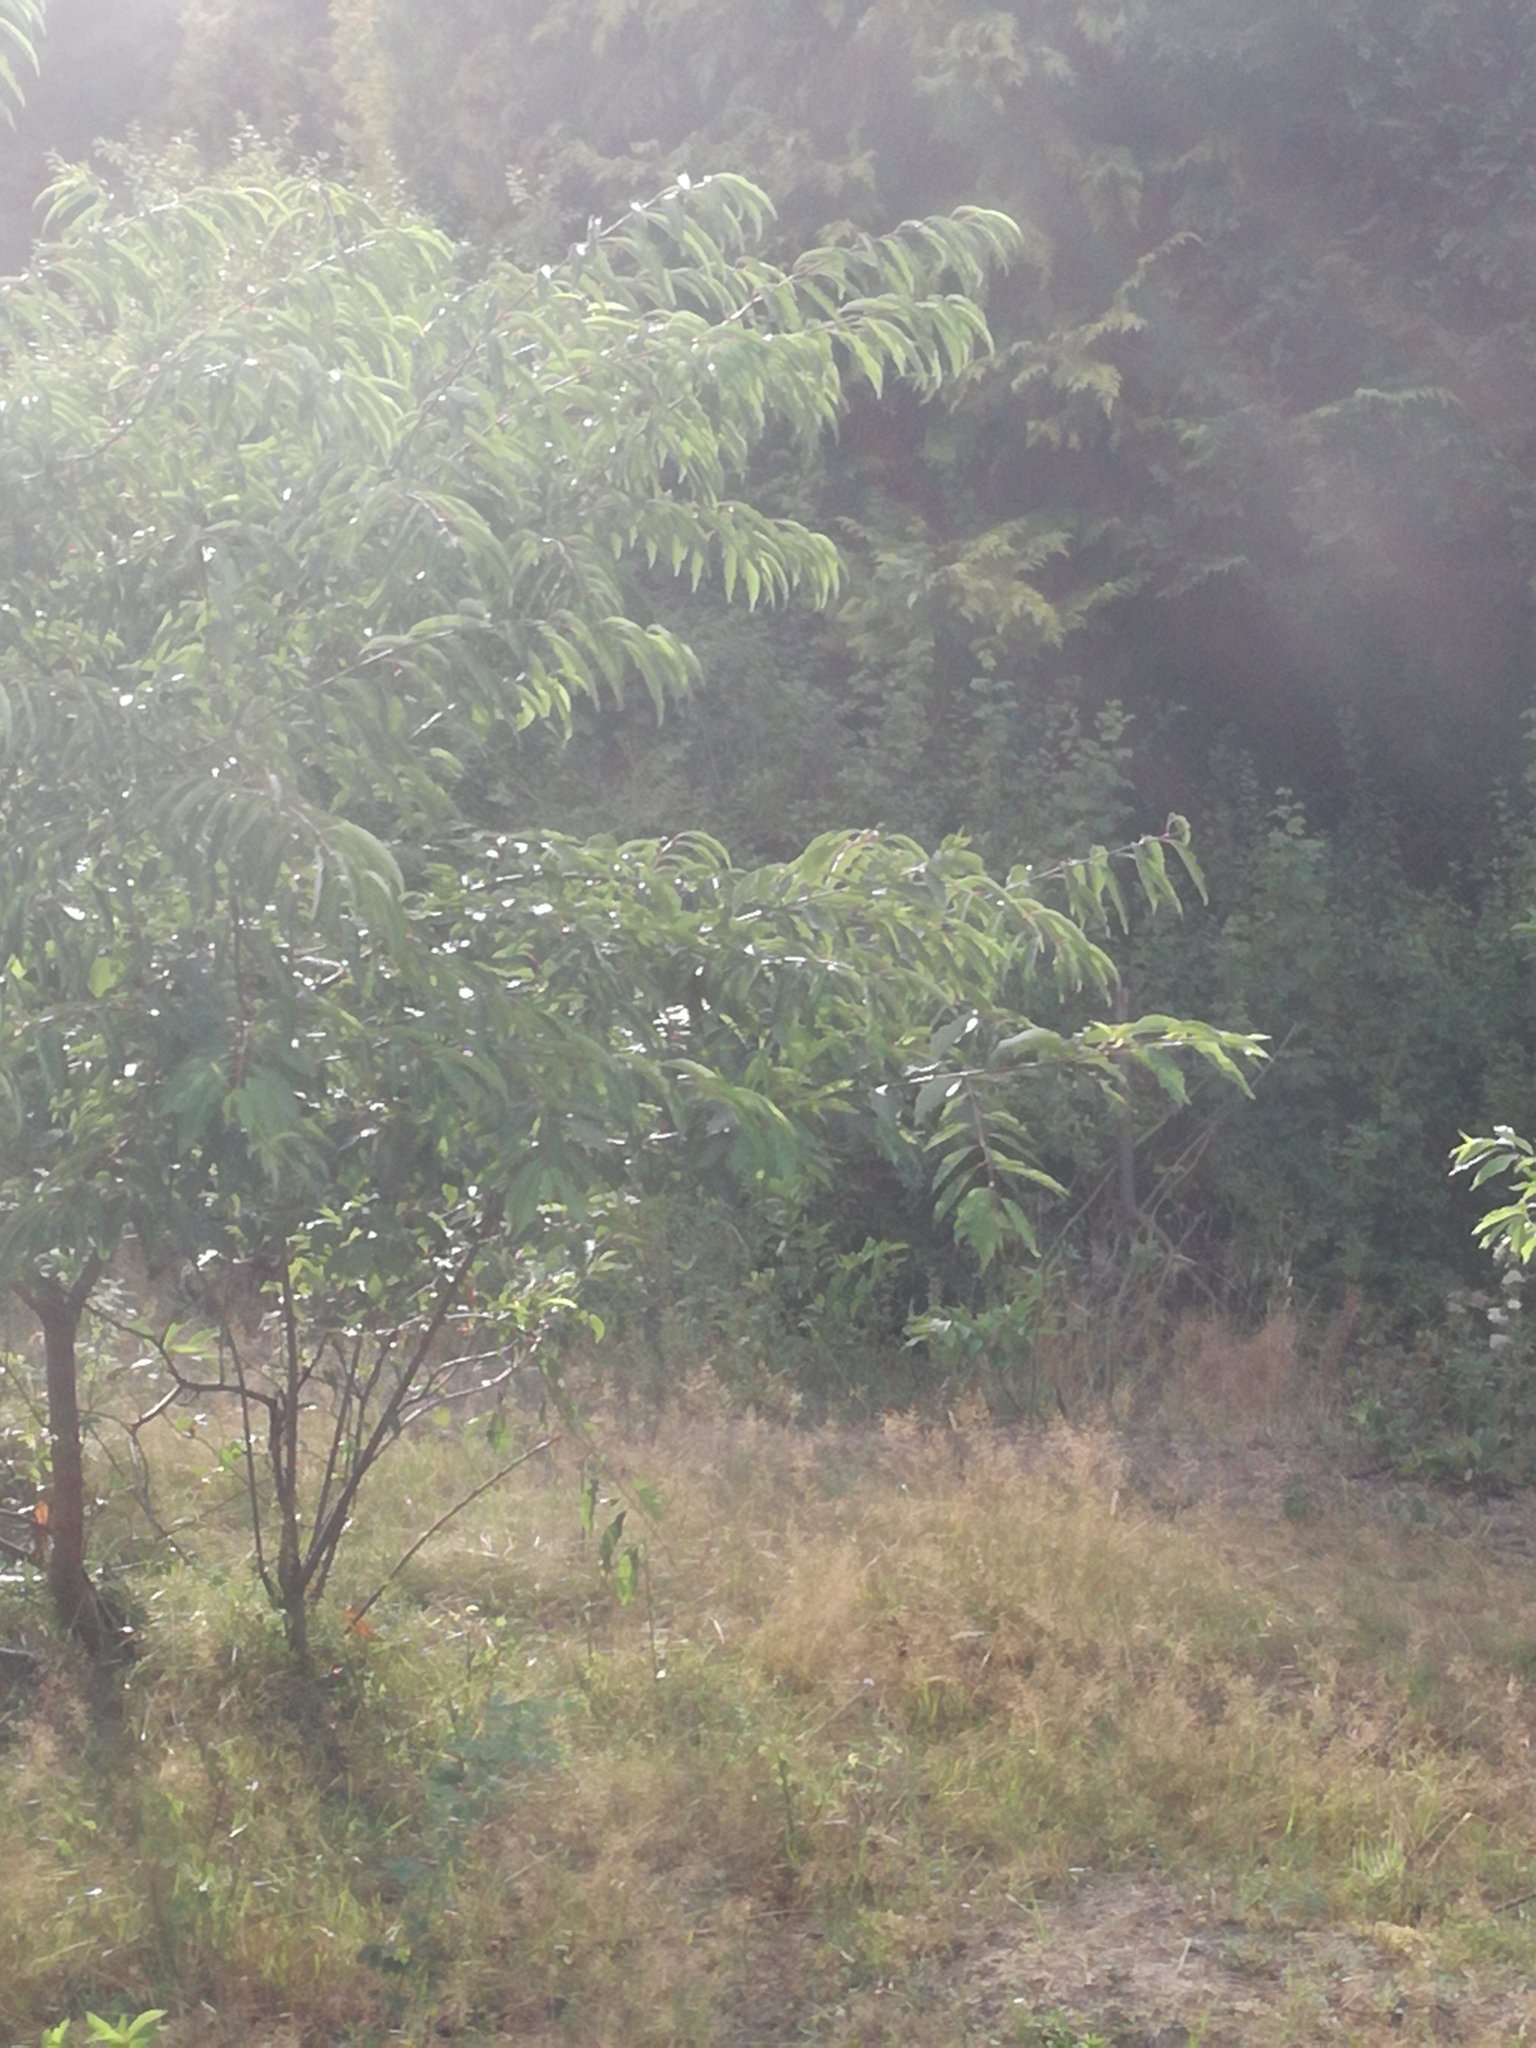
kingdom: Plantae
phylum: Tracheophyta
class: Magnoliopsida
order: Rosales
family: Rosaceae
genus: Prunus
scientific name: Prunus serotina
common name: Black cherry
